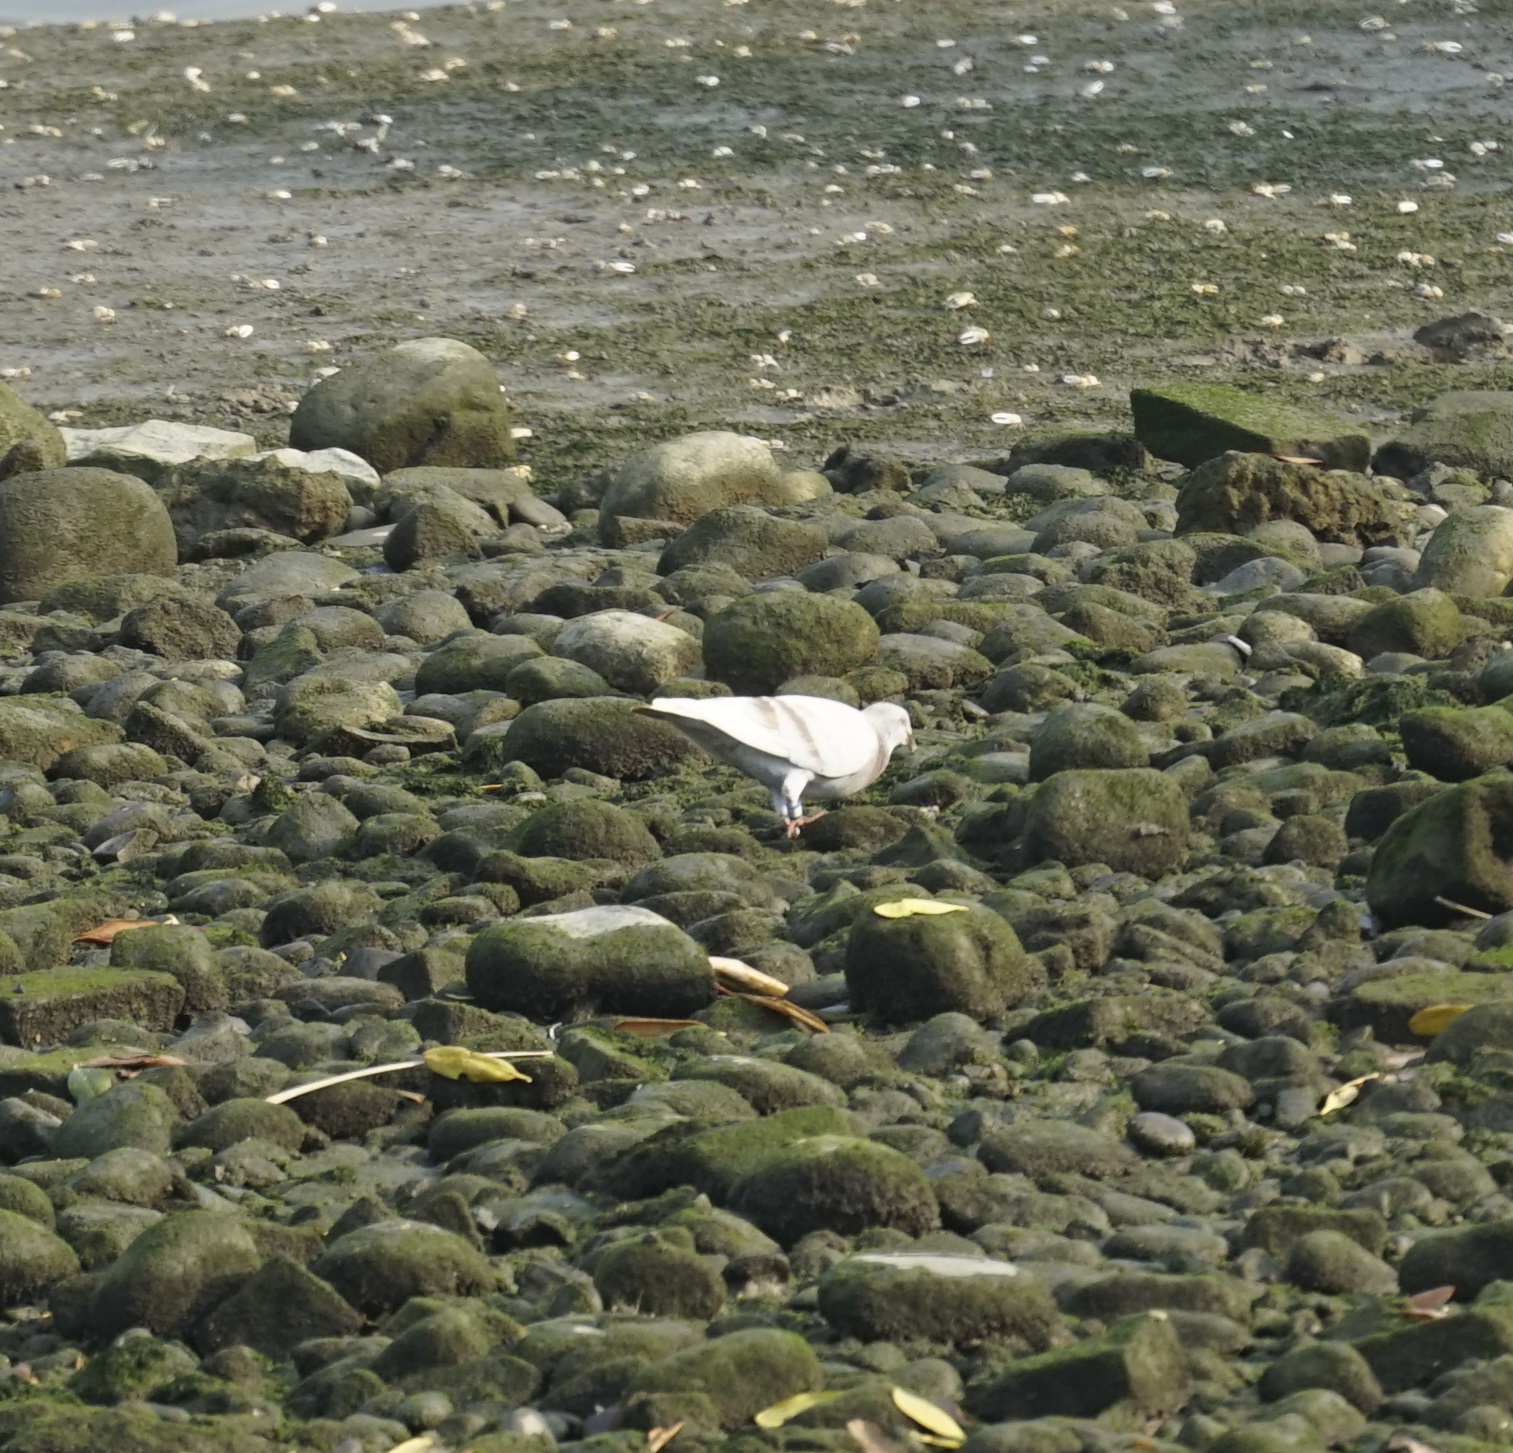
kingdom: Animalia
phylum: Chordata
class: Aves
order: Columbiformes
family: Columbidae
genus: Columba
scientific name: Columba livia
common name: Rock pigeon
